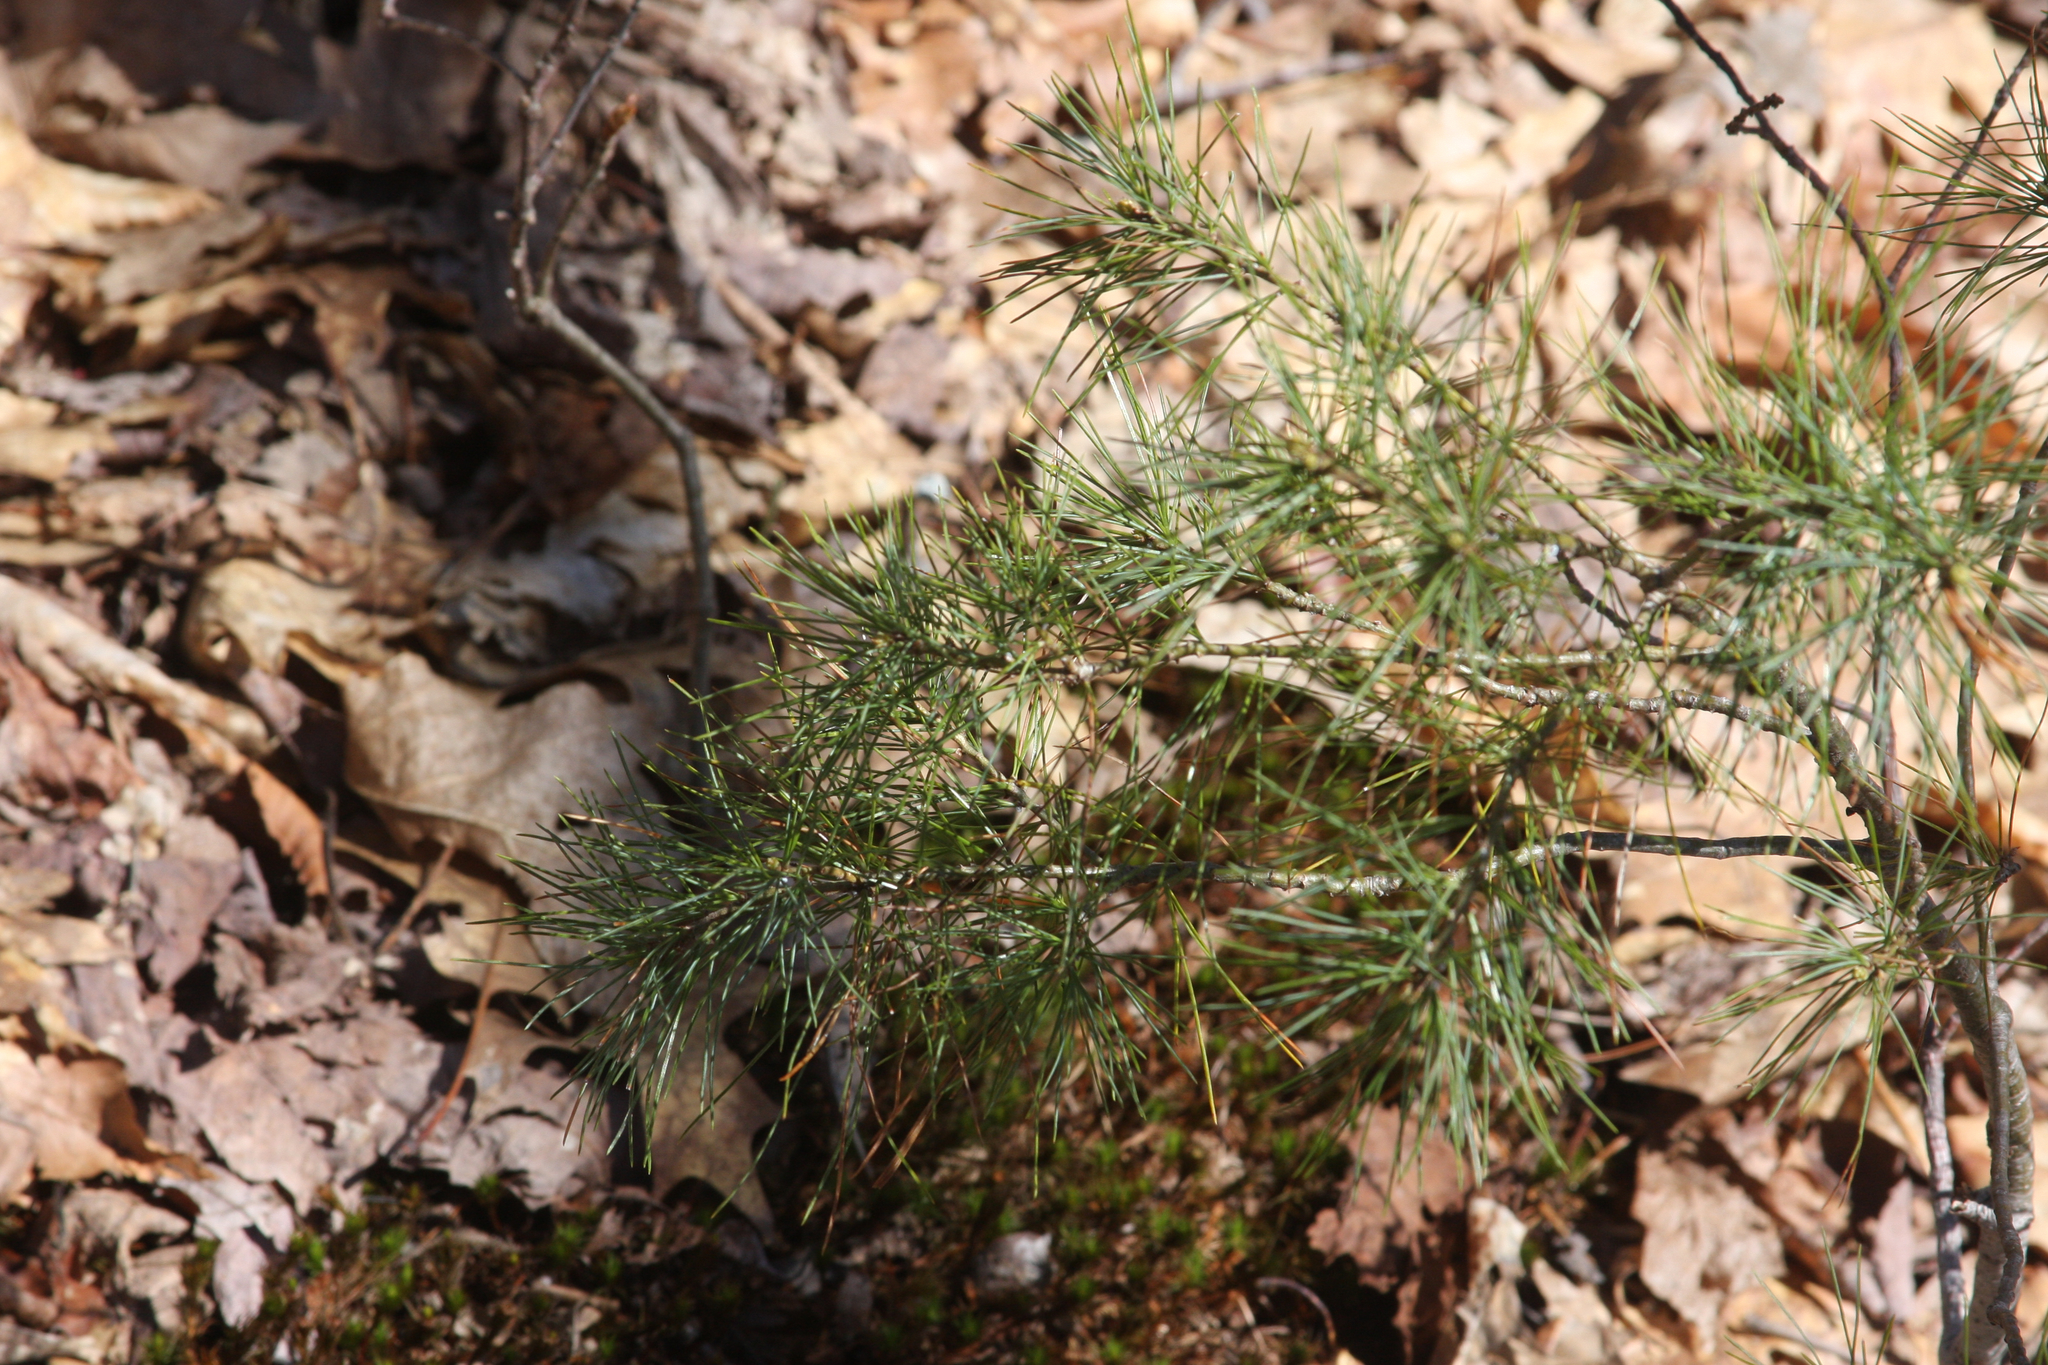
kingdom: Plantae
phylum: Tracheophyta
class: Pinopsida
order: Pinales
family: Pinaceae
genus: Pinus
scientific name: Pinus strobus
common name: Weymouth pine
